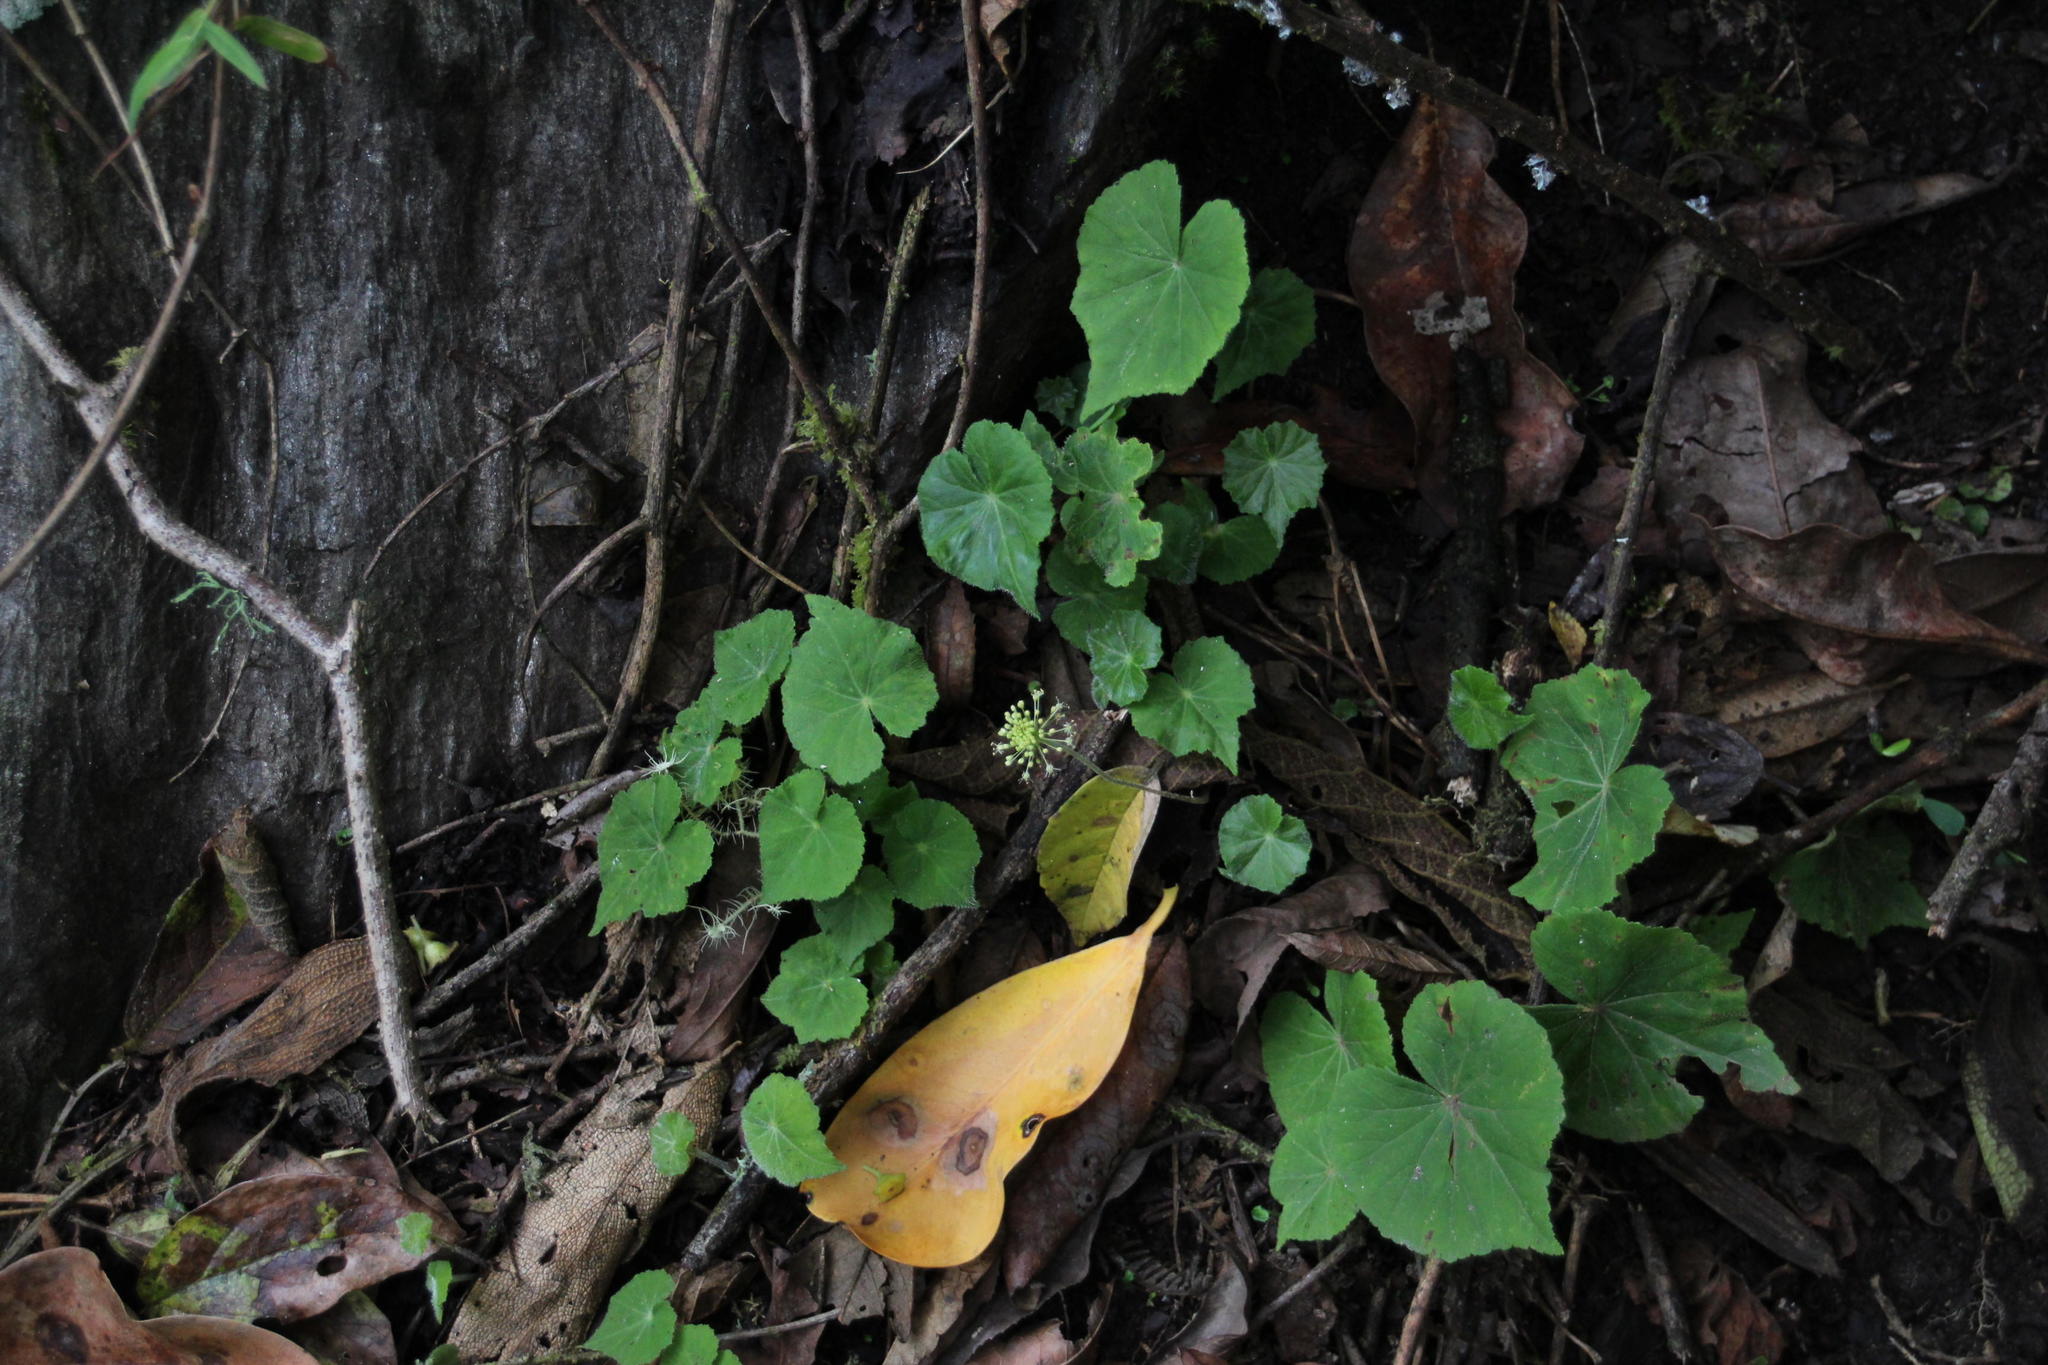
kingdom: Plantae
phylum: Tracheophyta
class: Magnoliopsida
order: Apiales
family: Araliaceae
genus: Hydrocotyle
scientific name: Hydrocotyle acutifolia
